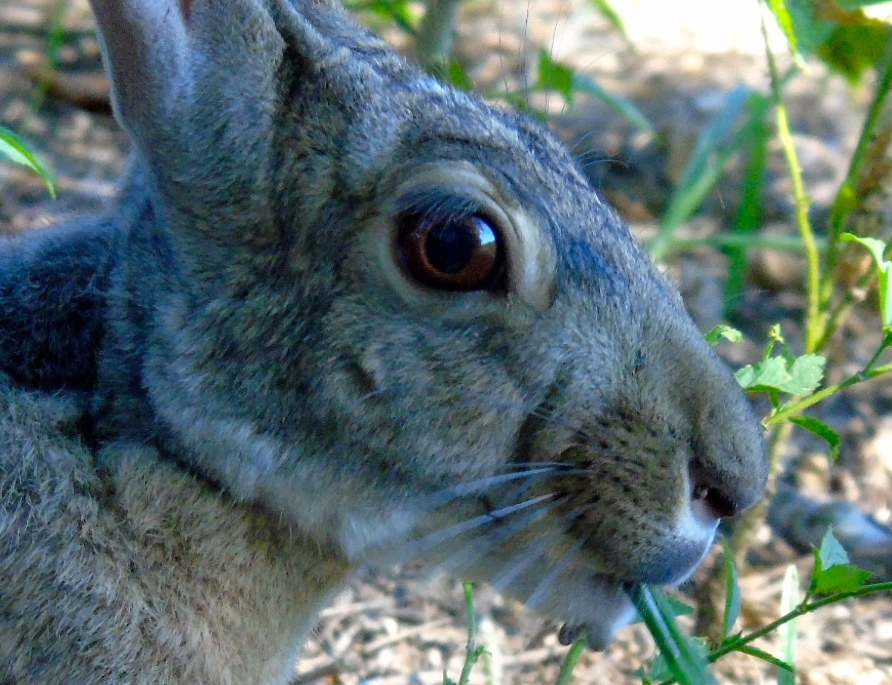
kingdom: Animalia
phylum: Chordata
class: Mammalia
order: Lagomorpha
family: Leporidae
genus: Lepus
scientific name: Lepus alleni
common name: Antelope jackrabbit
